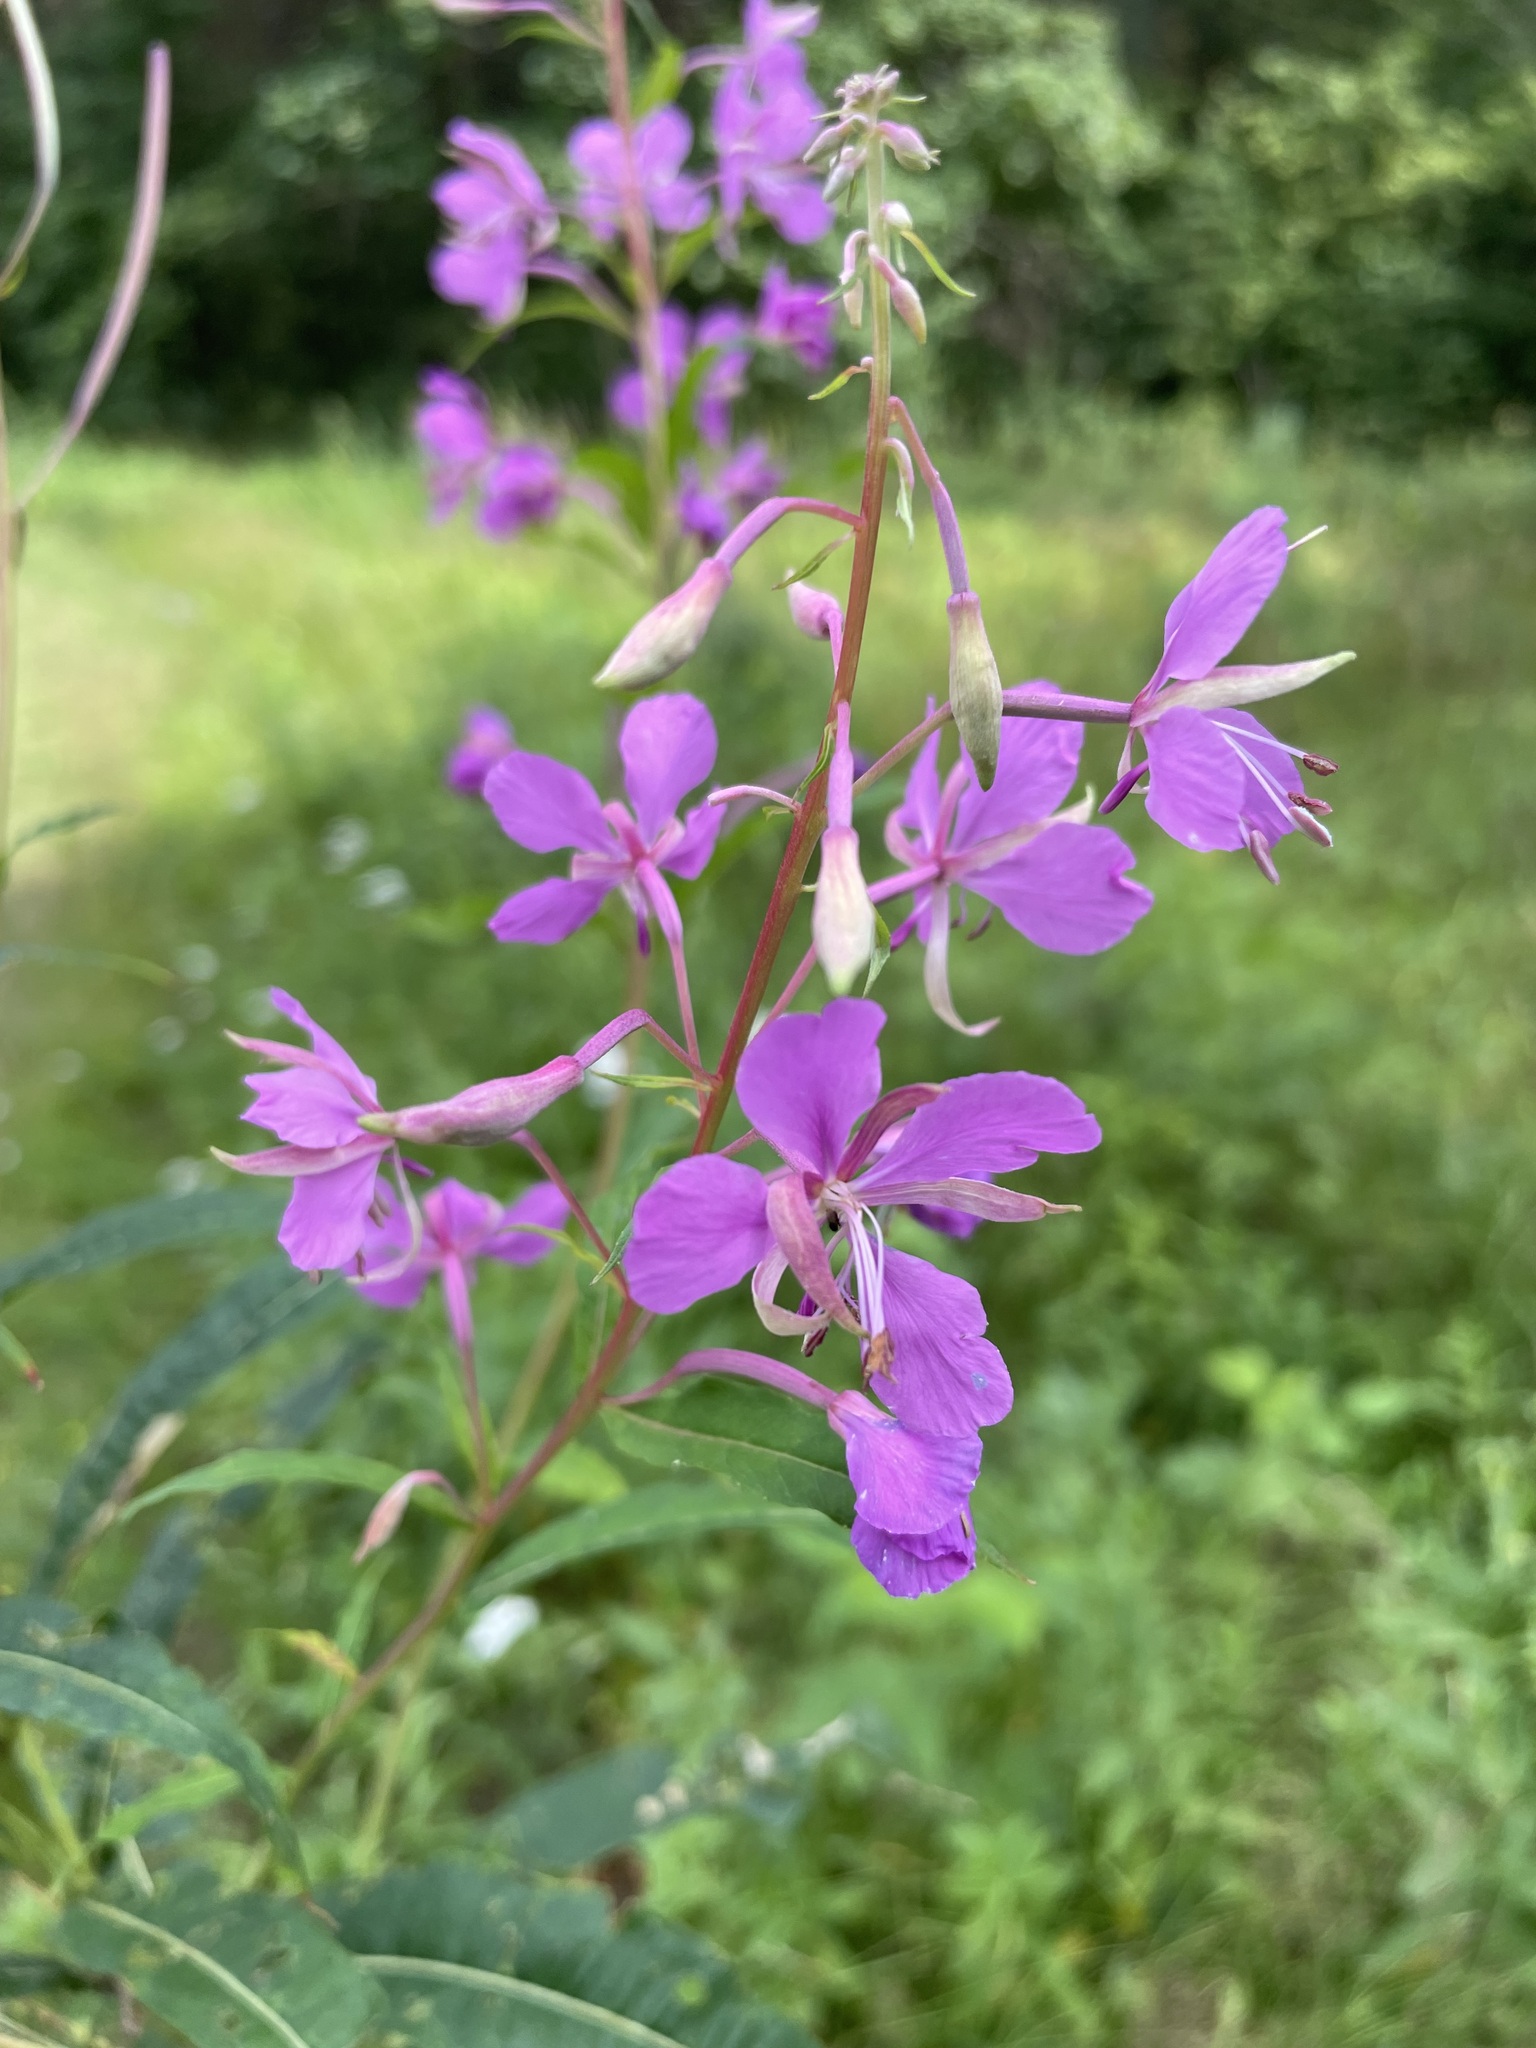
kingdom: Plantae
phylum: Tracheophyta
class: Magnoliopsida
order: Myrtales
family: Onagraceae
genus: Chamaenerion
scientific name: Chamaenerion angustifolium
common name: Fireweed
